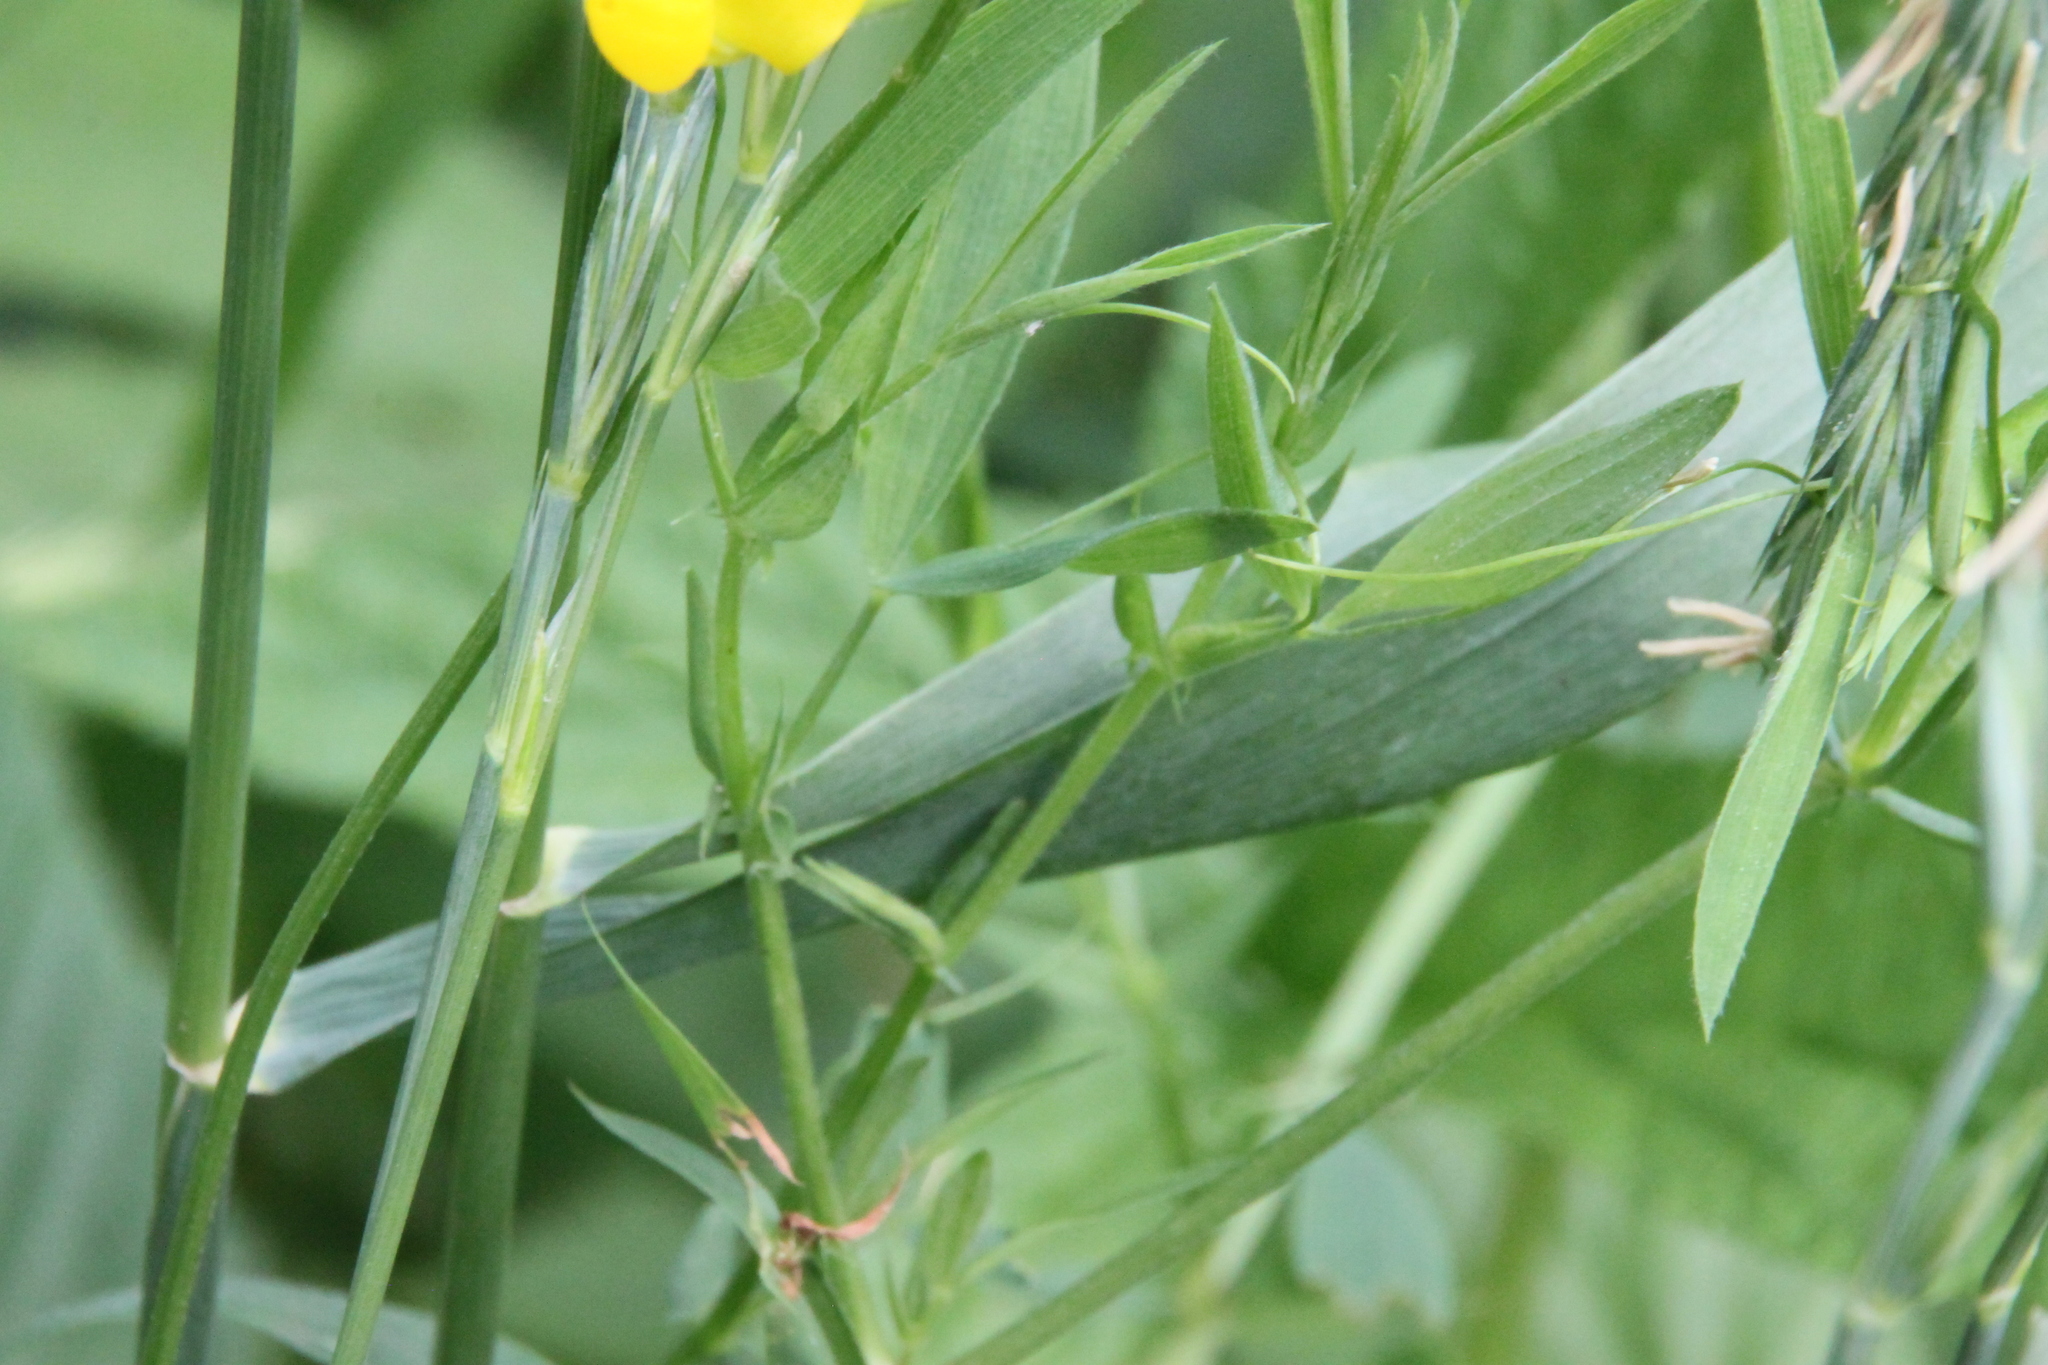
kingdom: Plantae
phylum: Tracheophyta
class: Magnoliopsida
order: Fabales
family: Fabaceae
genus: Lathyrus
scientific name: Lathyrus pratensis
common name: Meadow vetchling
